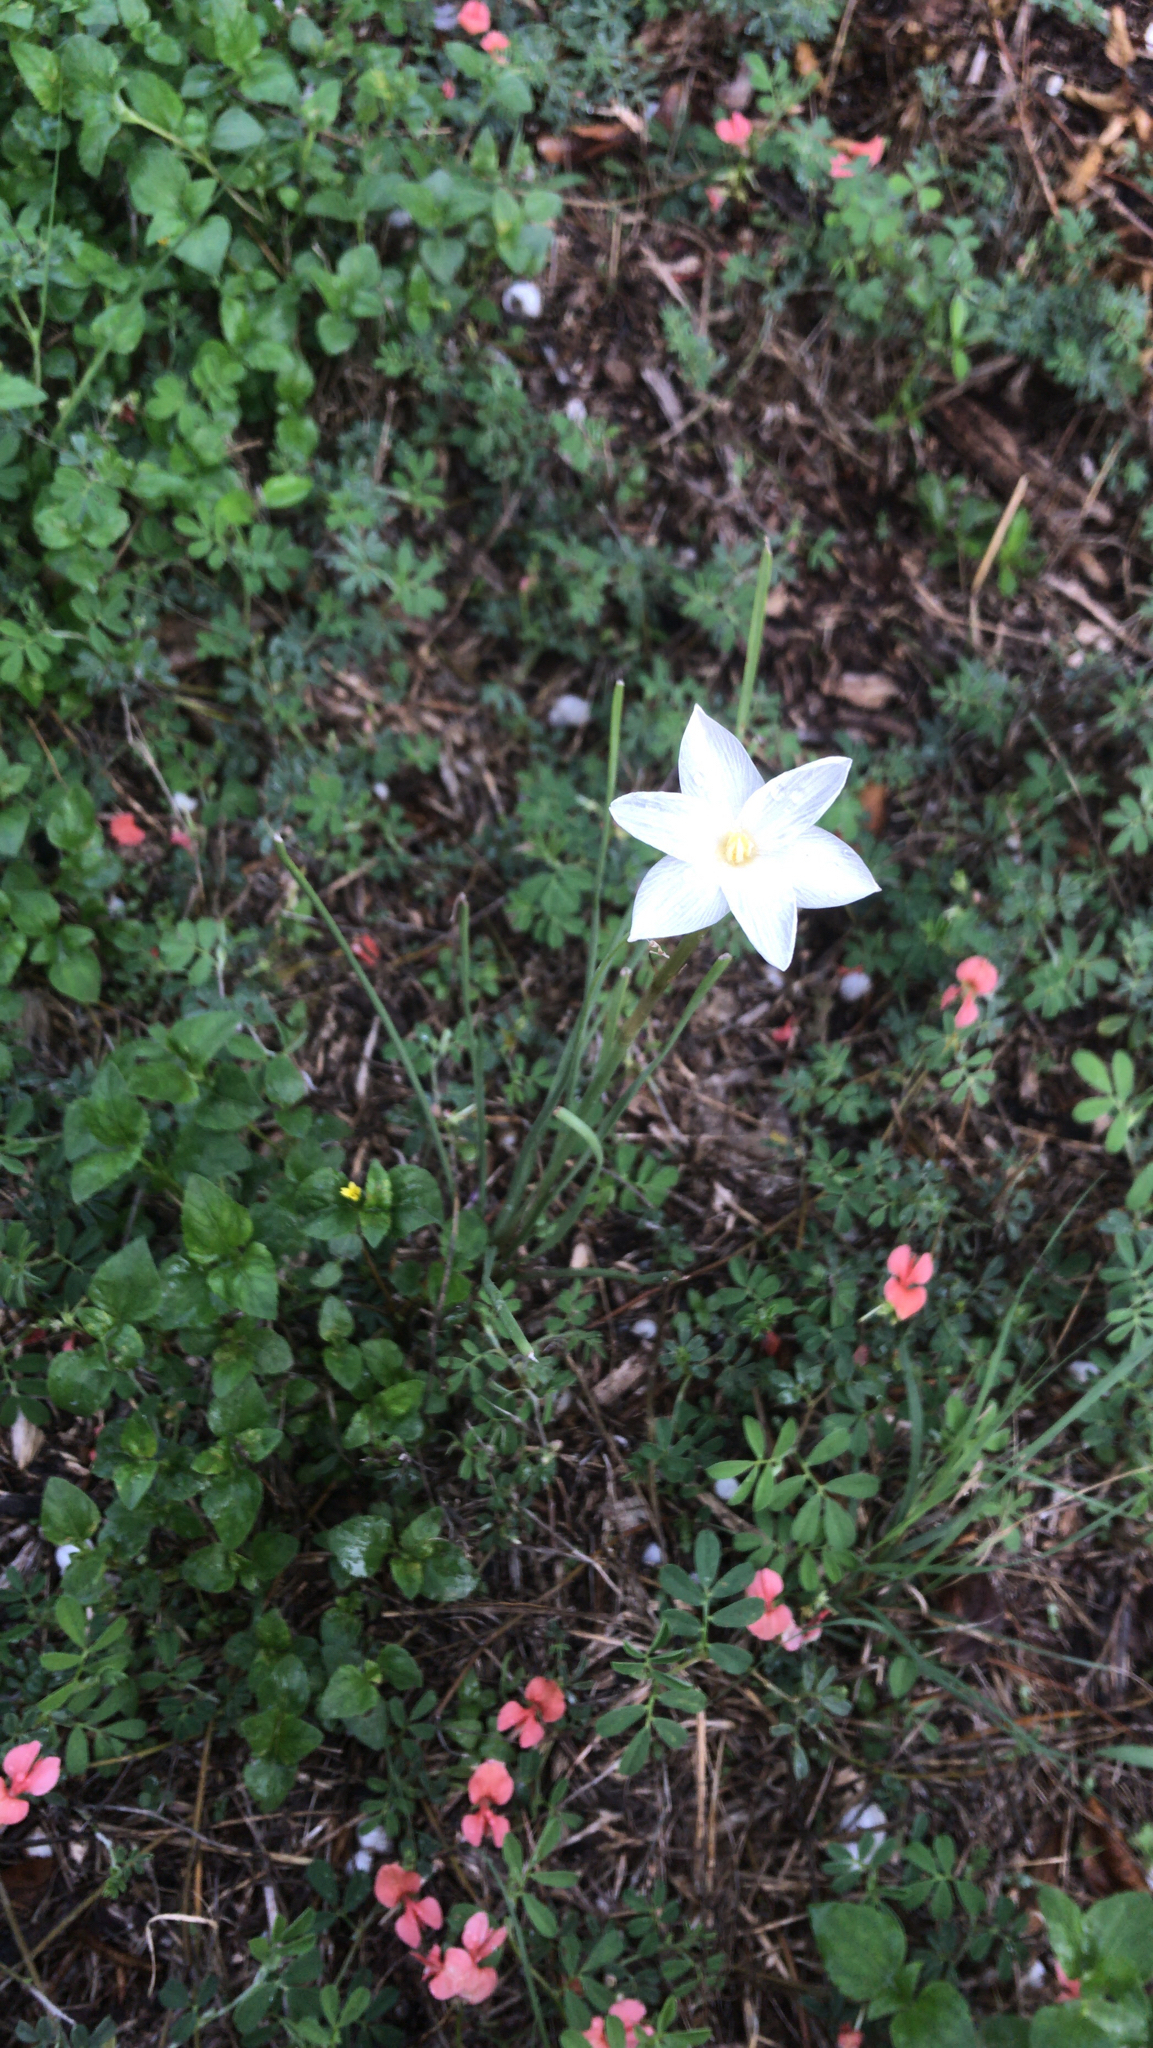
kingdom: Plantae
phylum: Tracheophyta
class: Liliopsida
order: Asparagales
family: Amaryllidaceae
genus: Zephyranthes
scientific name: Zephyranthes chlorosolen
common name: Evening rain-lily
